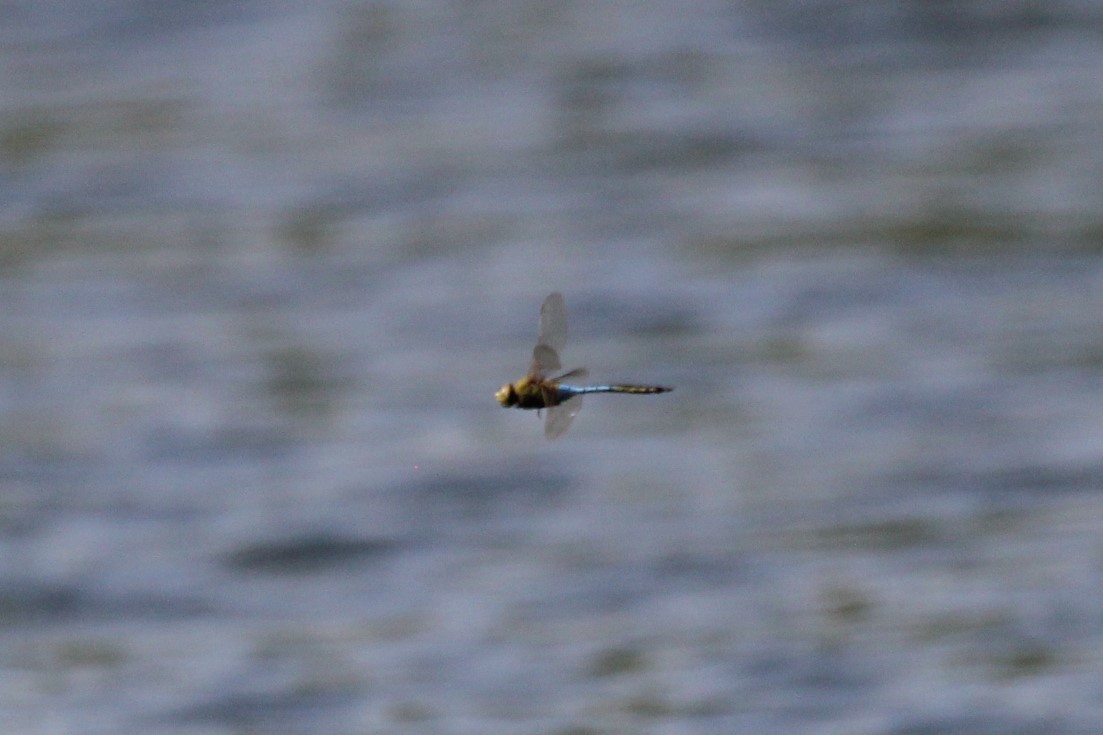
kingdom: Animalia
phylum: Arthropoda
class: Insecta
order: Odonata
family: Aeshnidae
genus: Anax
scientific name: Anax junius
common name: Common green darner
